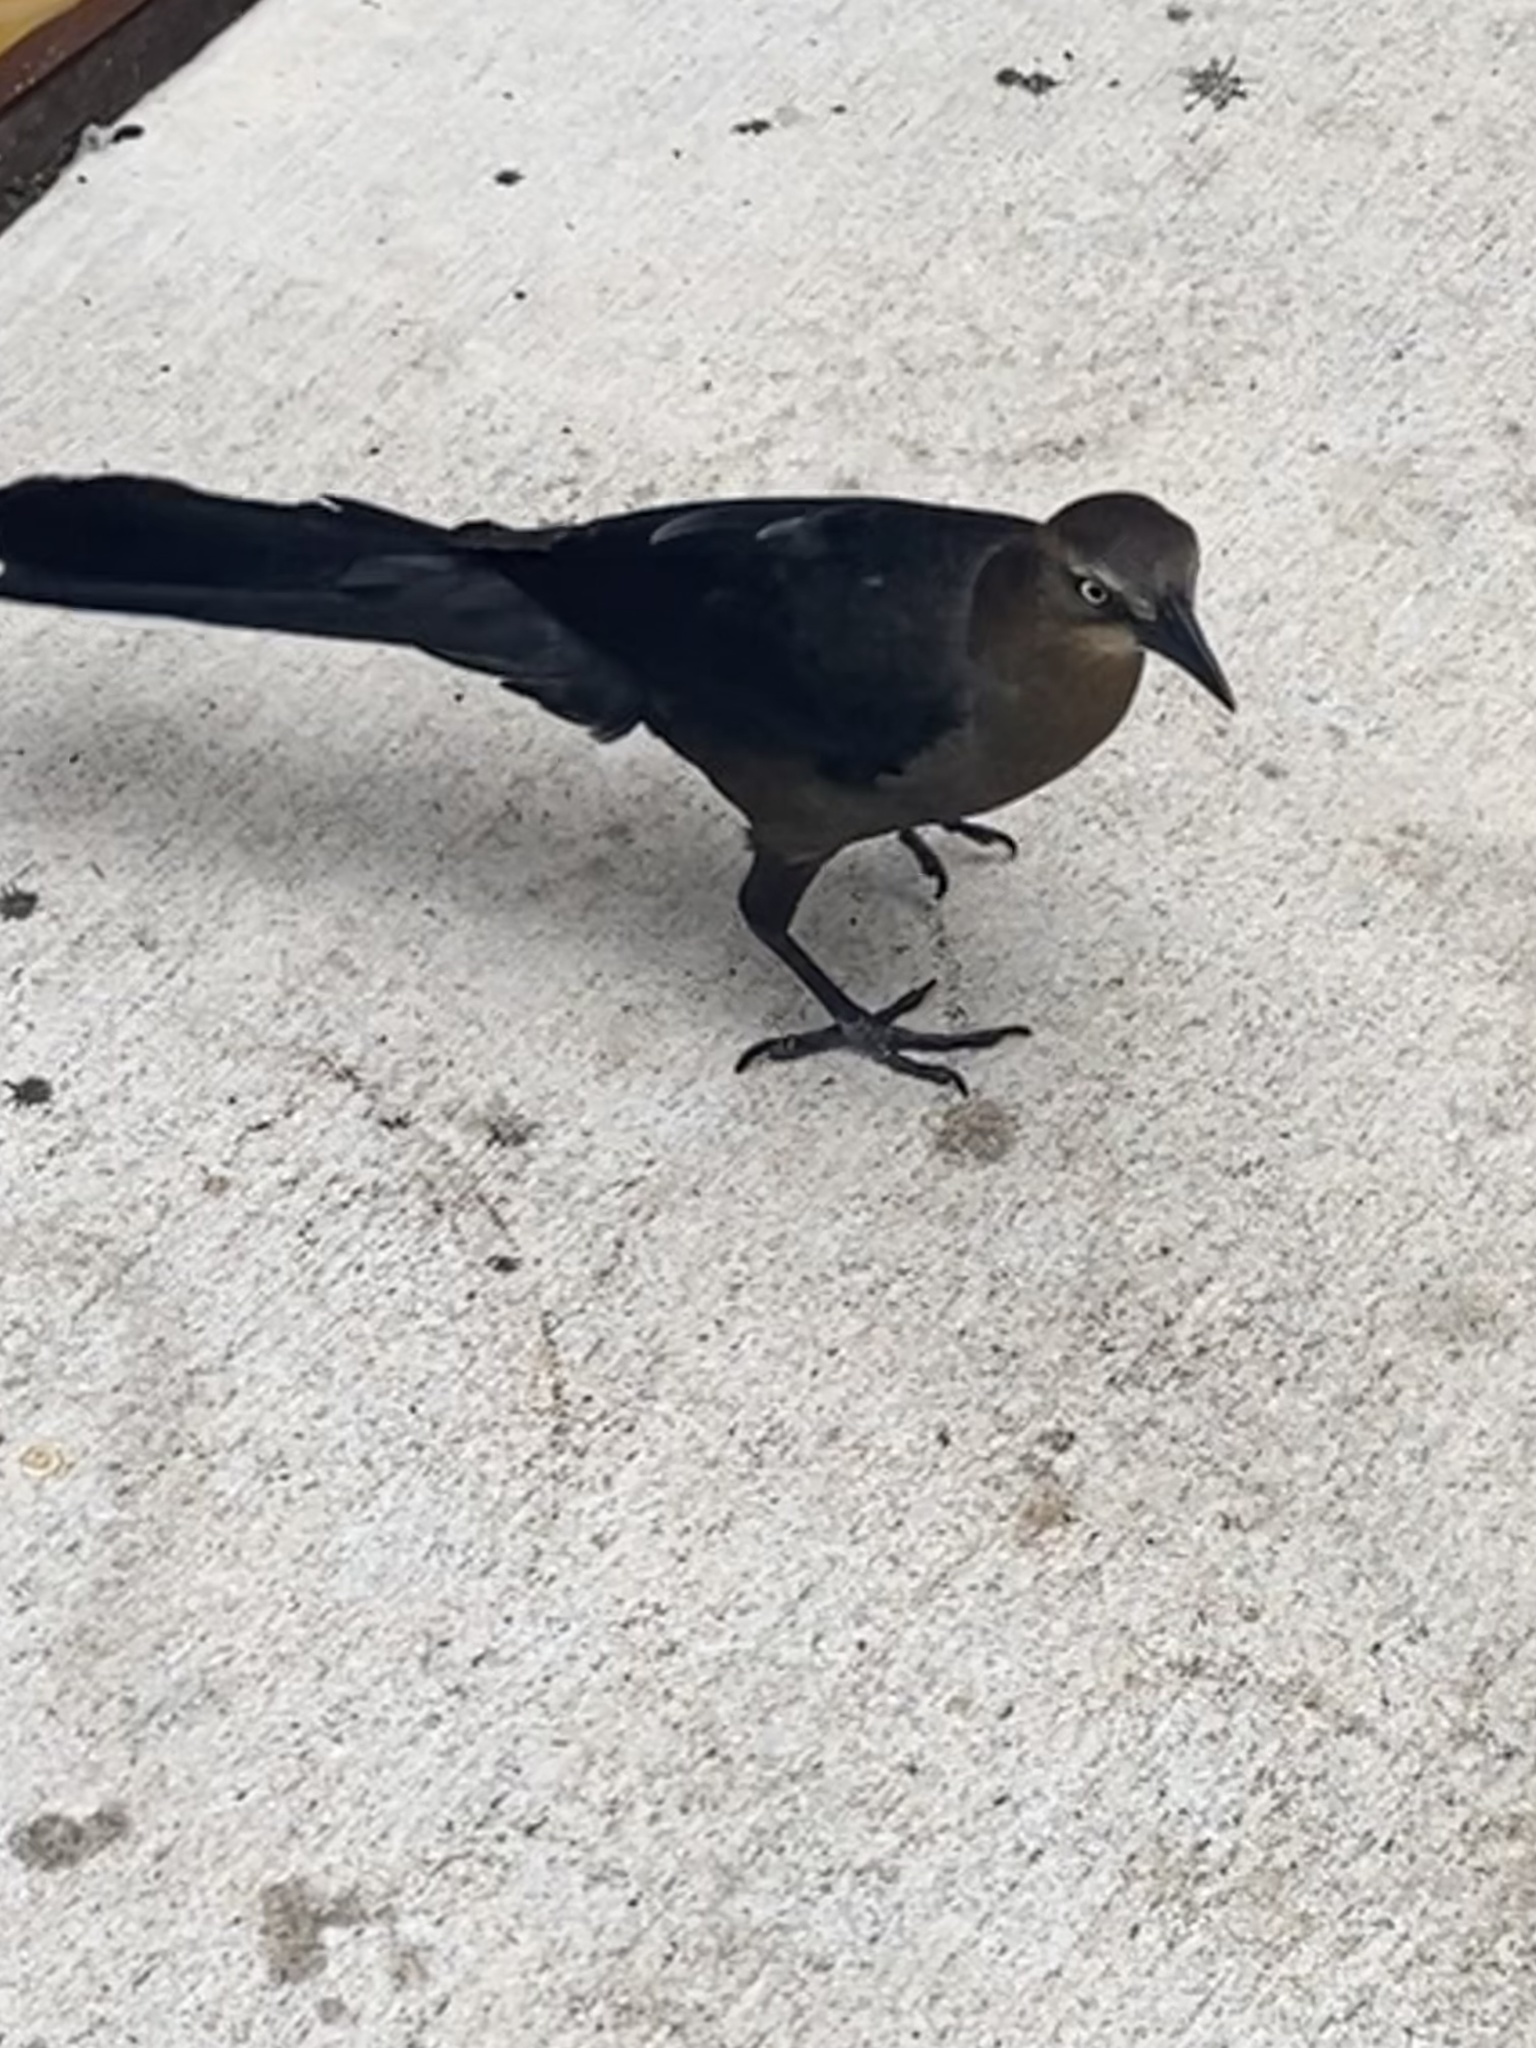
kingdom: Animalia
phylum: Chordata
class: Aves
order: Passeriformes
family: Icteridae
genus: Quiscalus
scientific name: Quiscalus mexicanus
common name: Great-tailed grackle
